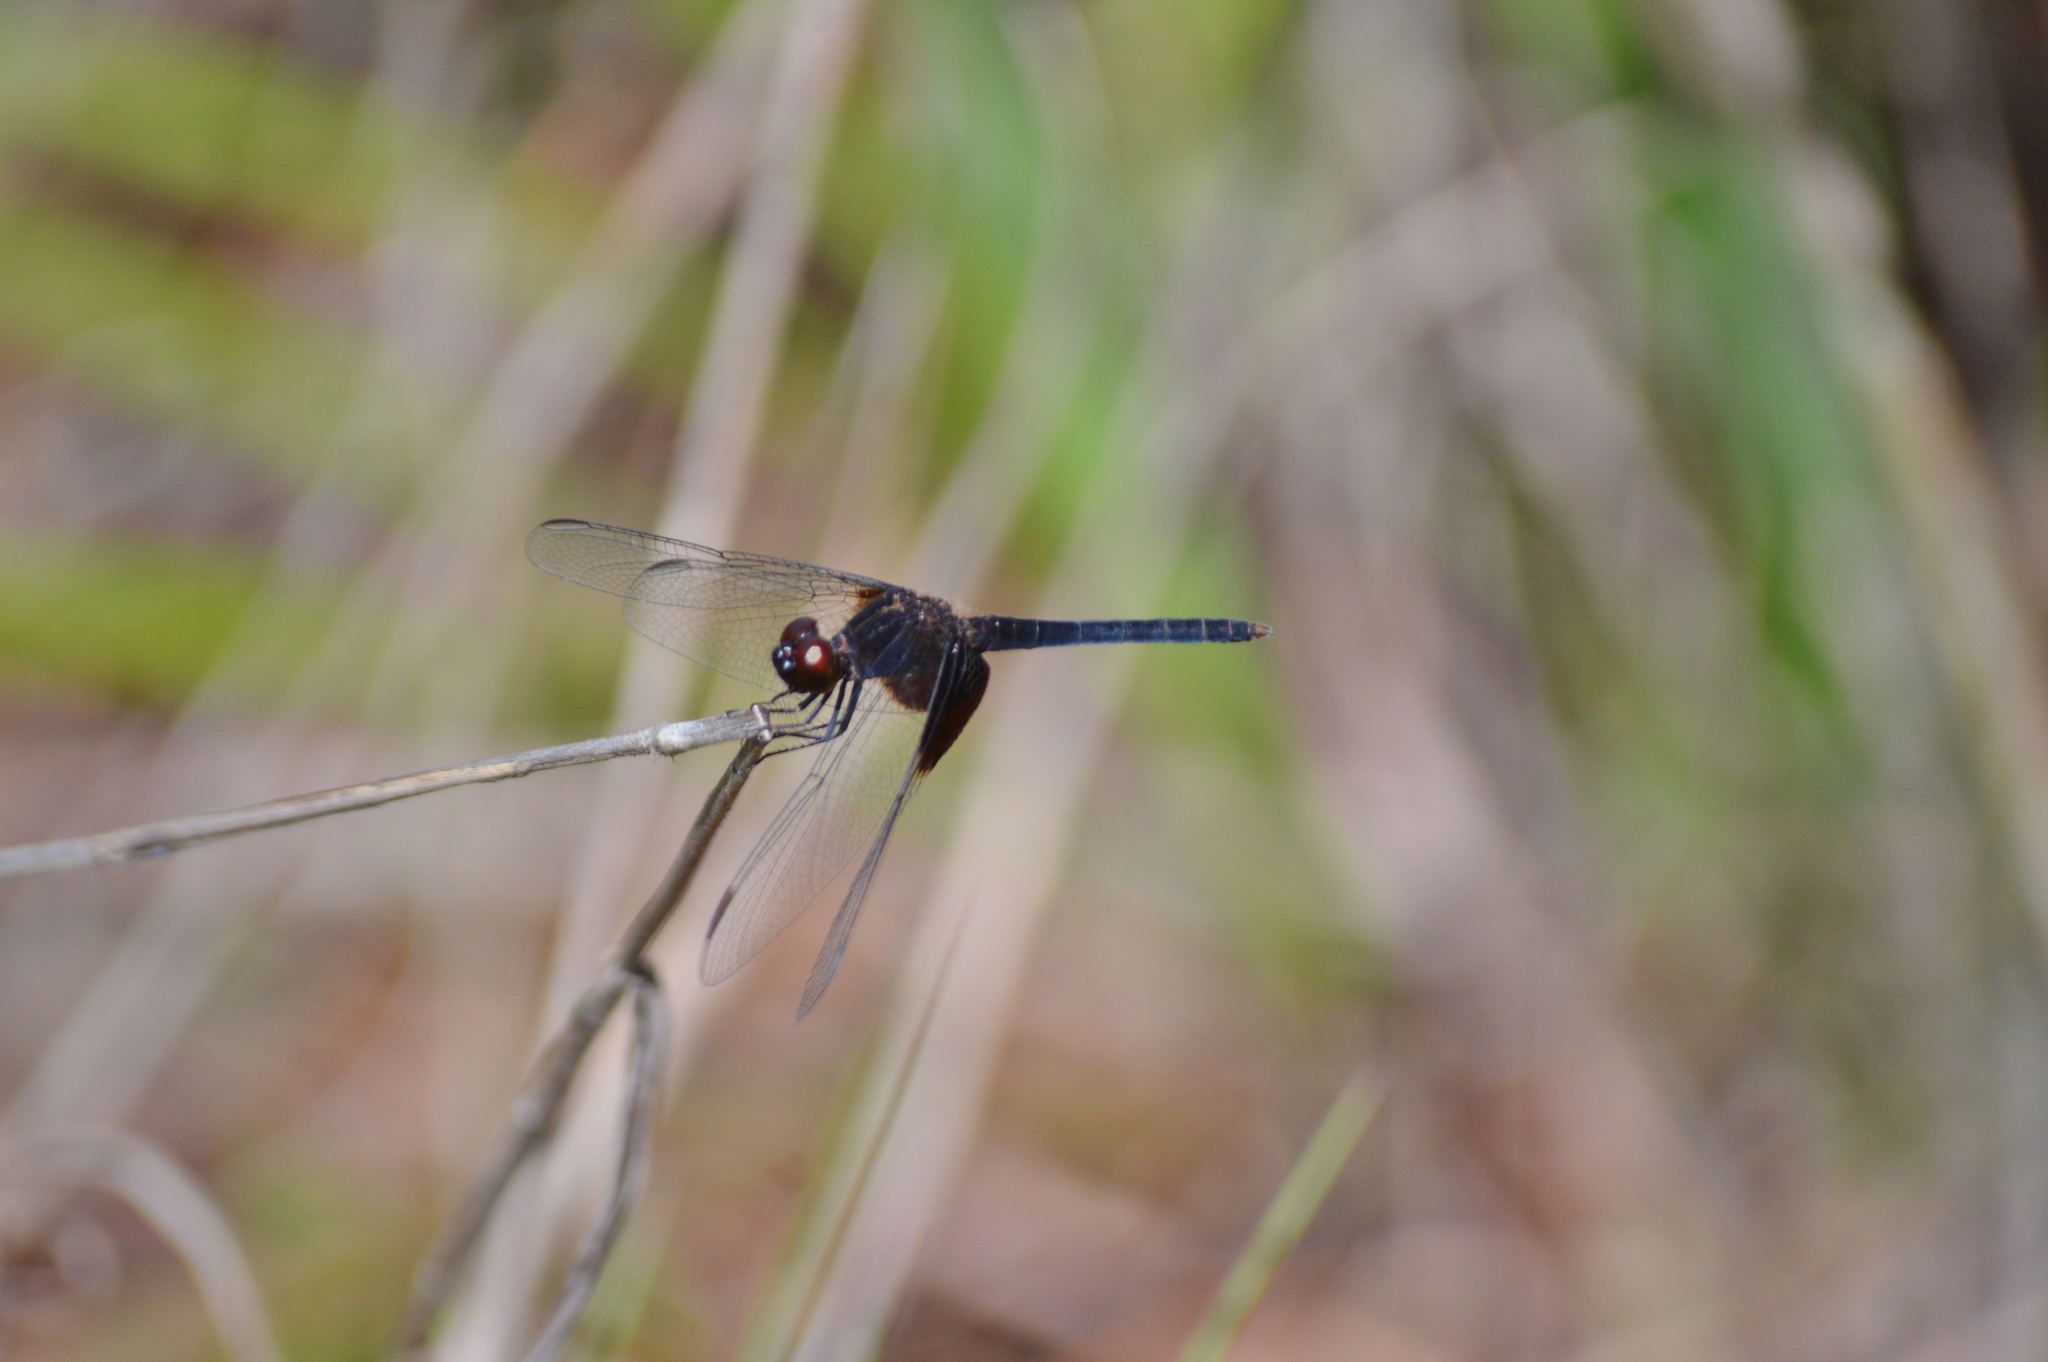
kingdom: Animalia
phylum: Arthropoda
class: Insecta
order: Odonata
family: Libellulidae
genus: Erythrodiplax
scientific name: Erythrodiplax latimaculata
